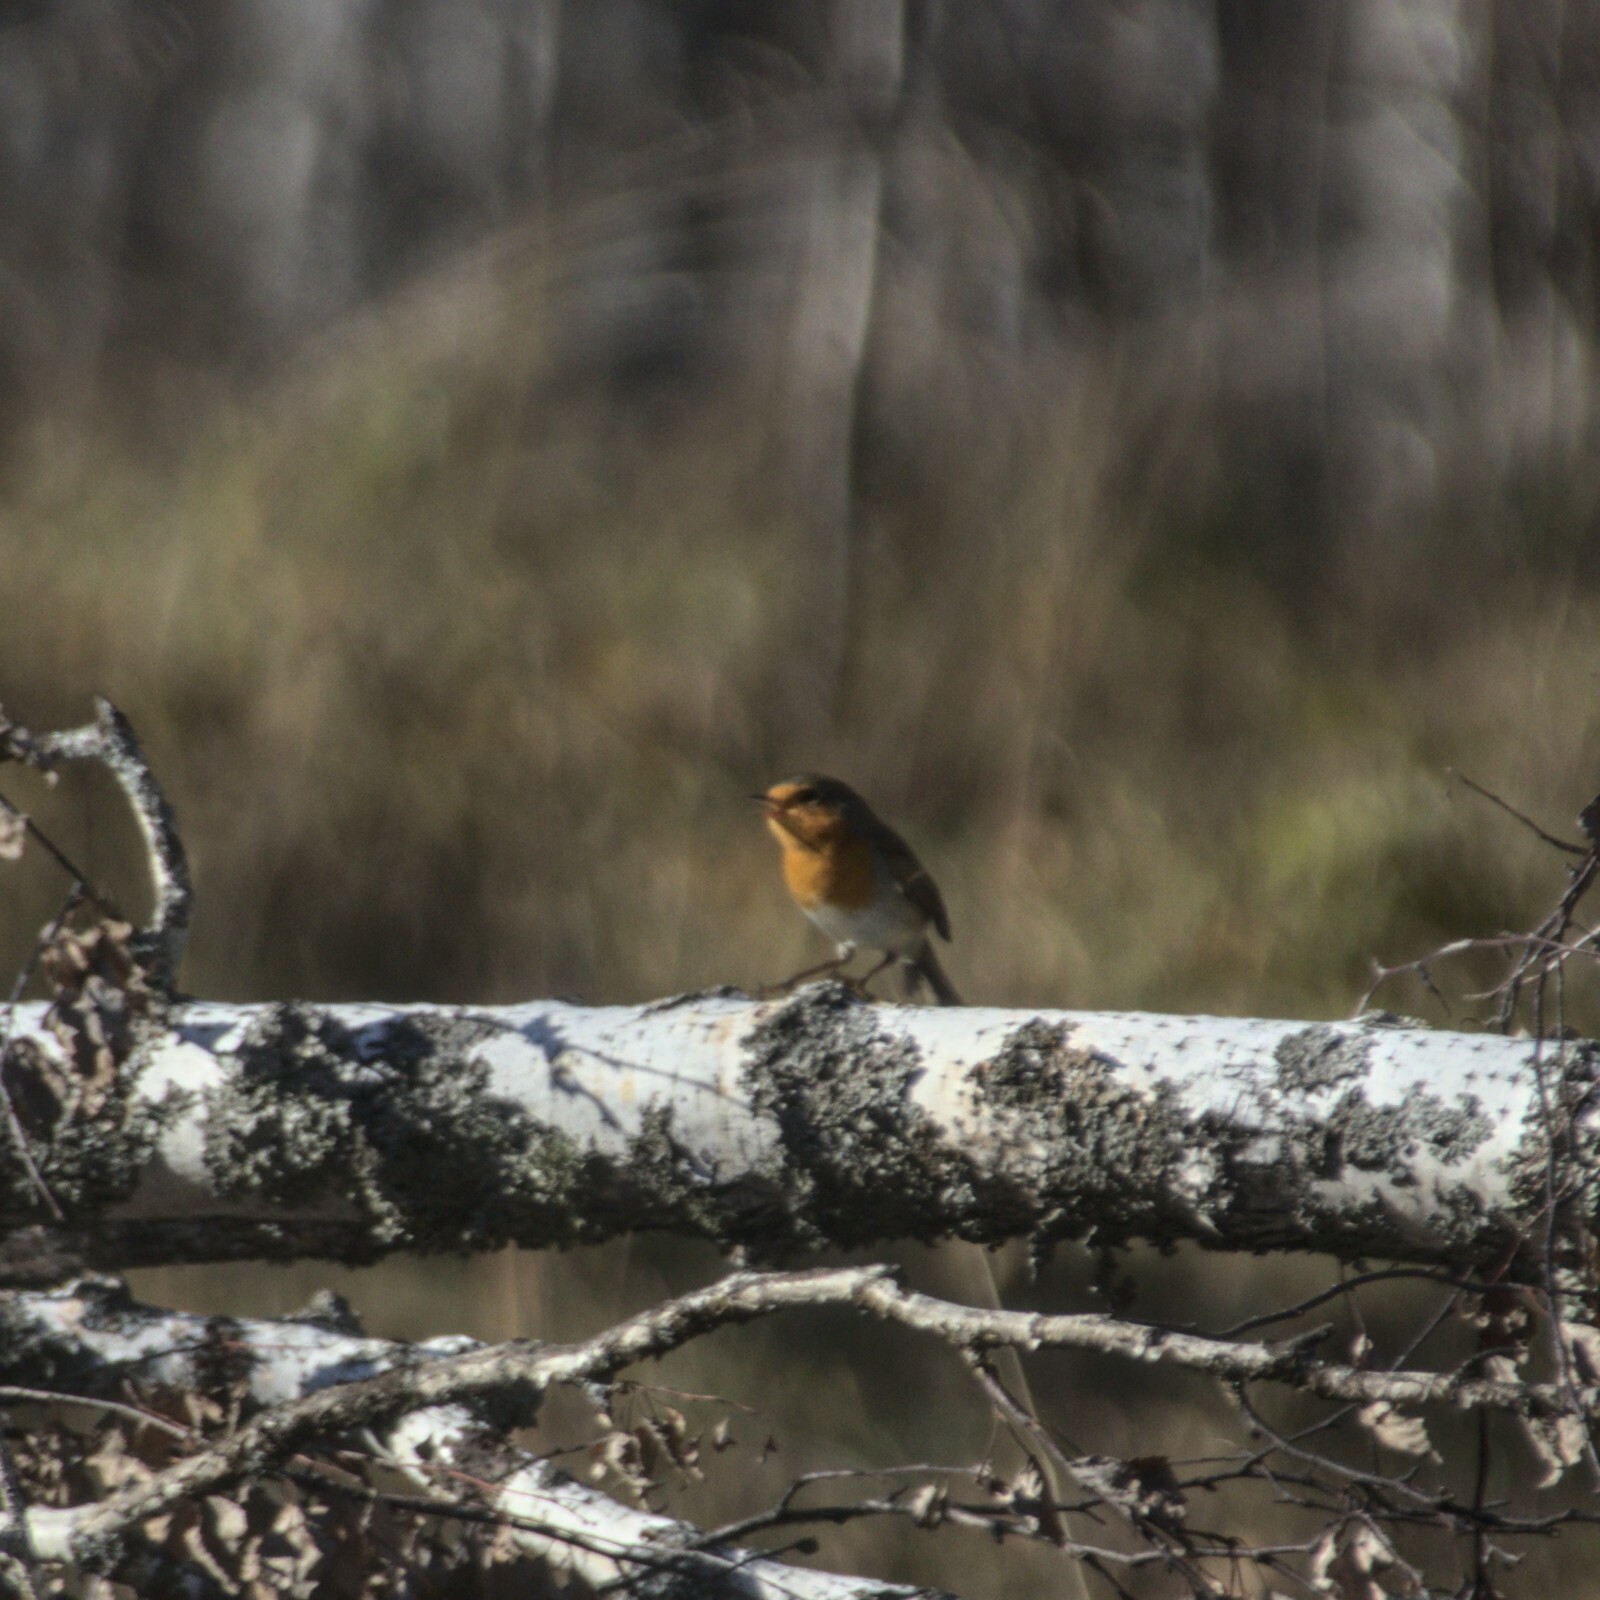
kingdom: Animalia
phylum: Chordata
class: Aves
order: Passeriformes
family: Muscicapidae
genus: Erithacus
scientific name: Erithacus rubecula
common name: European robin
